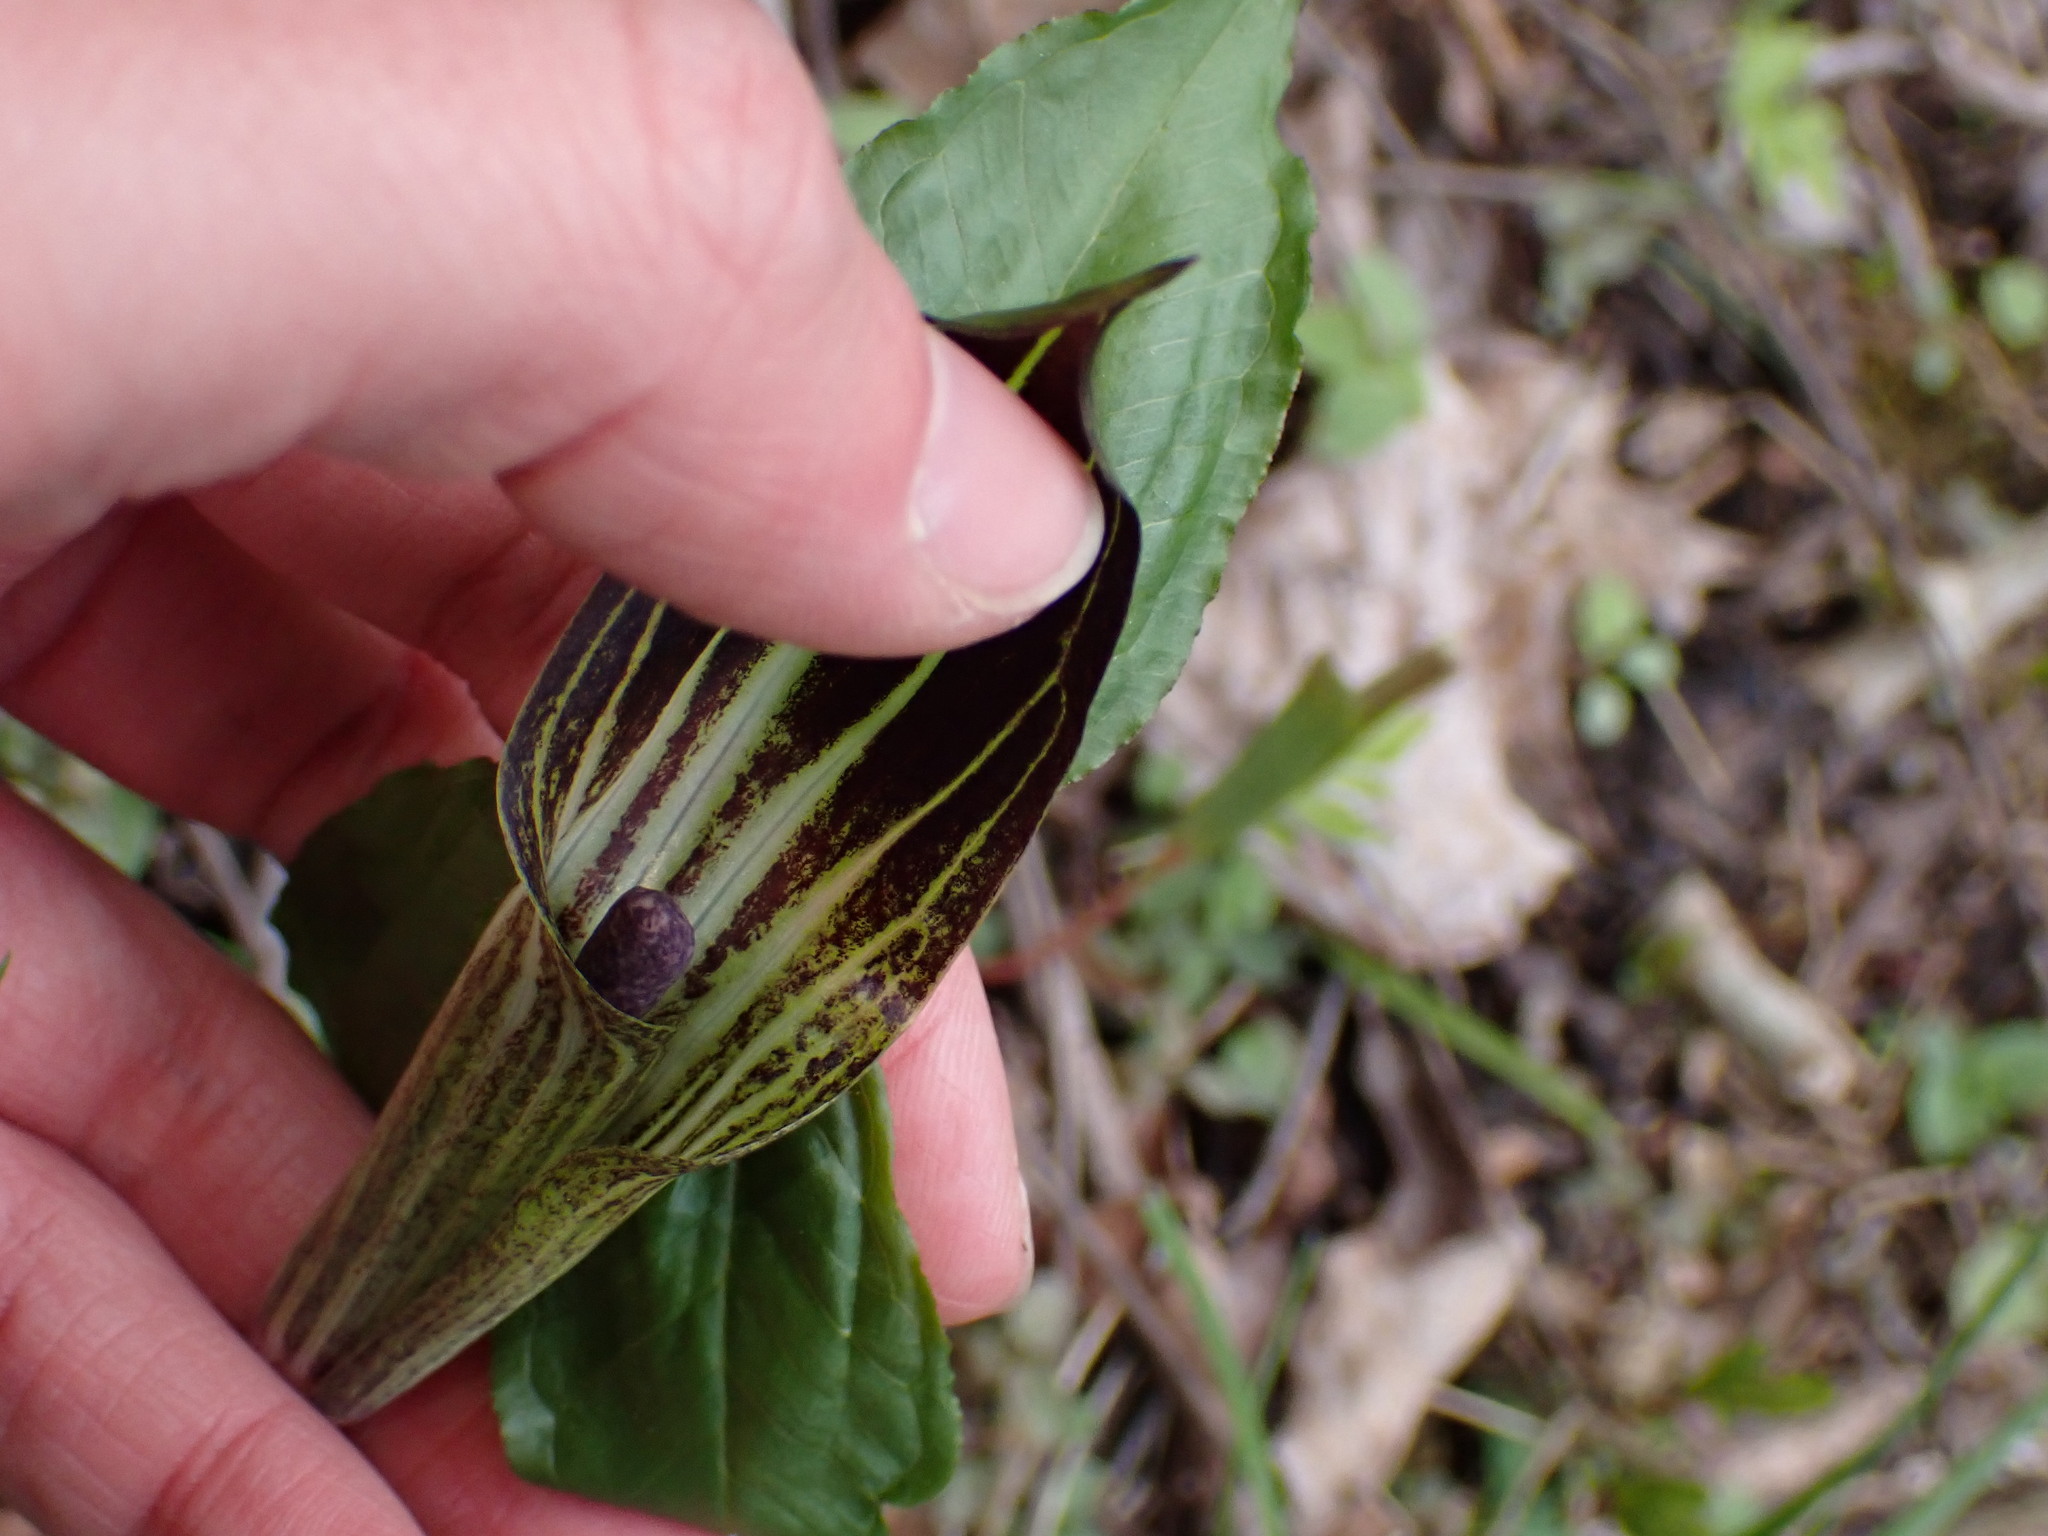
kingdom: Plantae
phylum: Tracheophyta
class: Liliopsida
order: Alismatales
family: Araceae
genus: Arisaema
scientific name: Arisaema triphyllum
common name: Jack-in-the-pulpit
